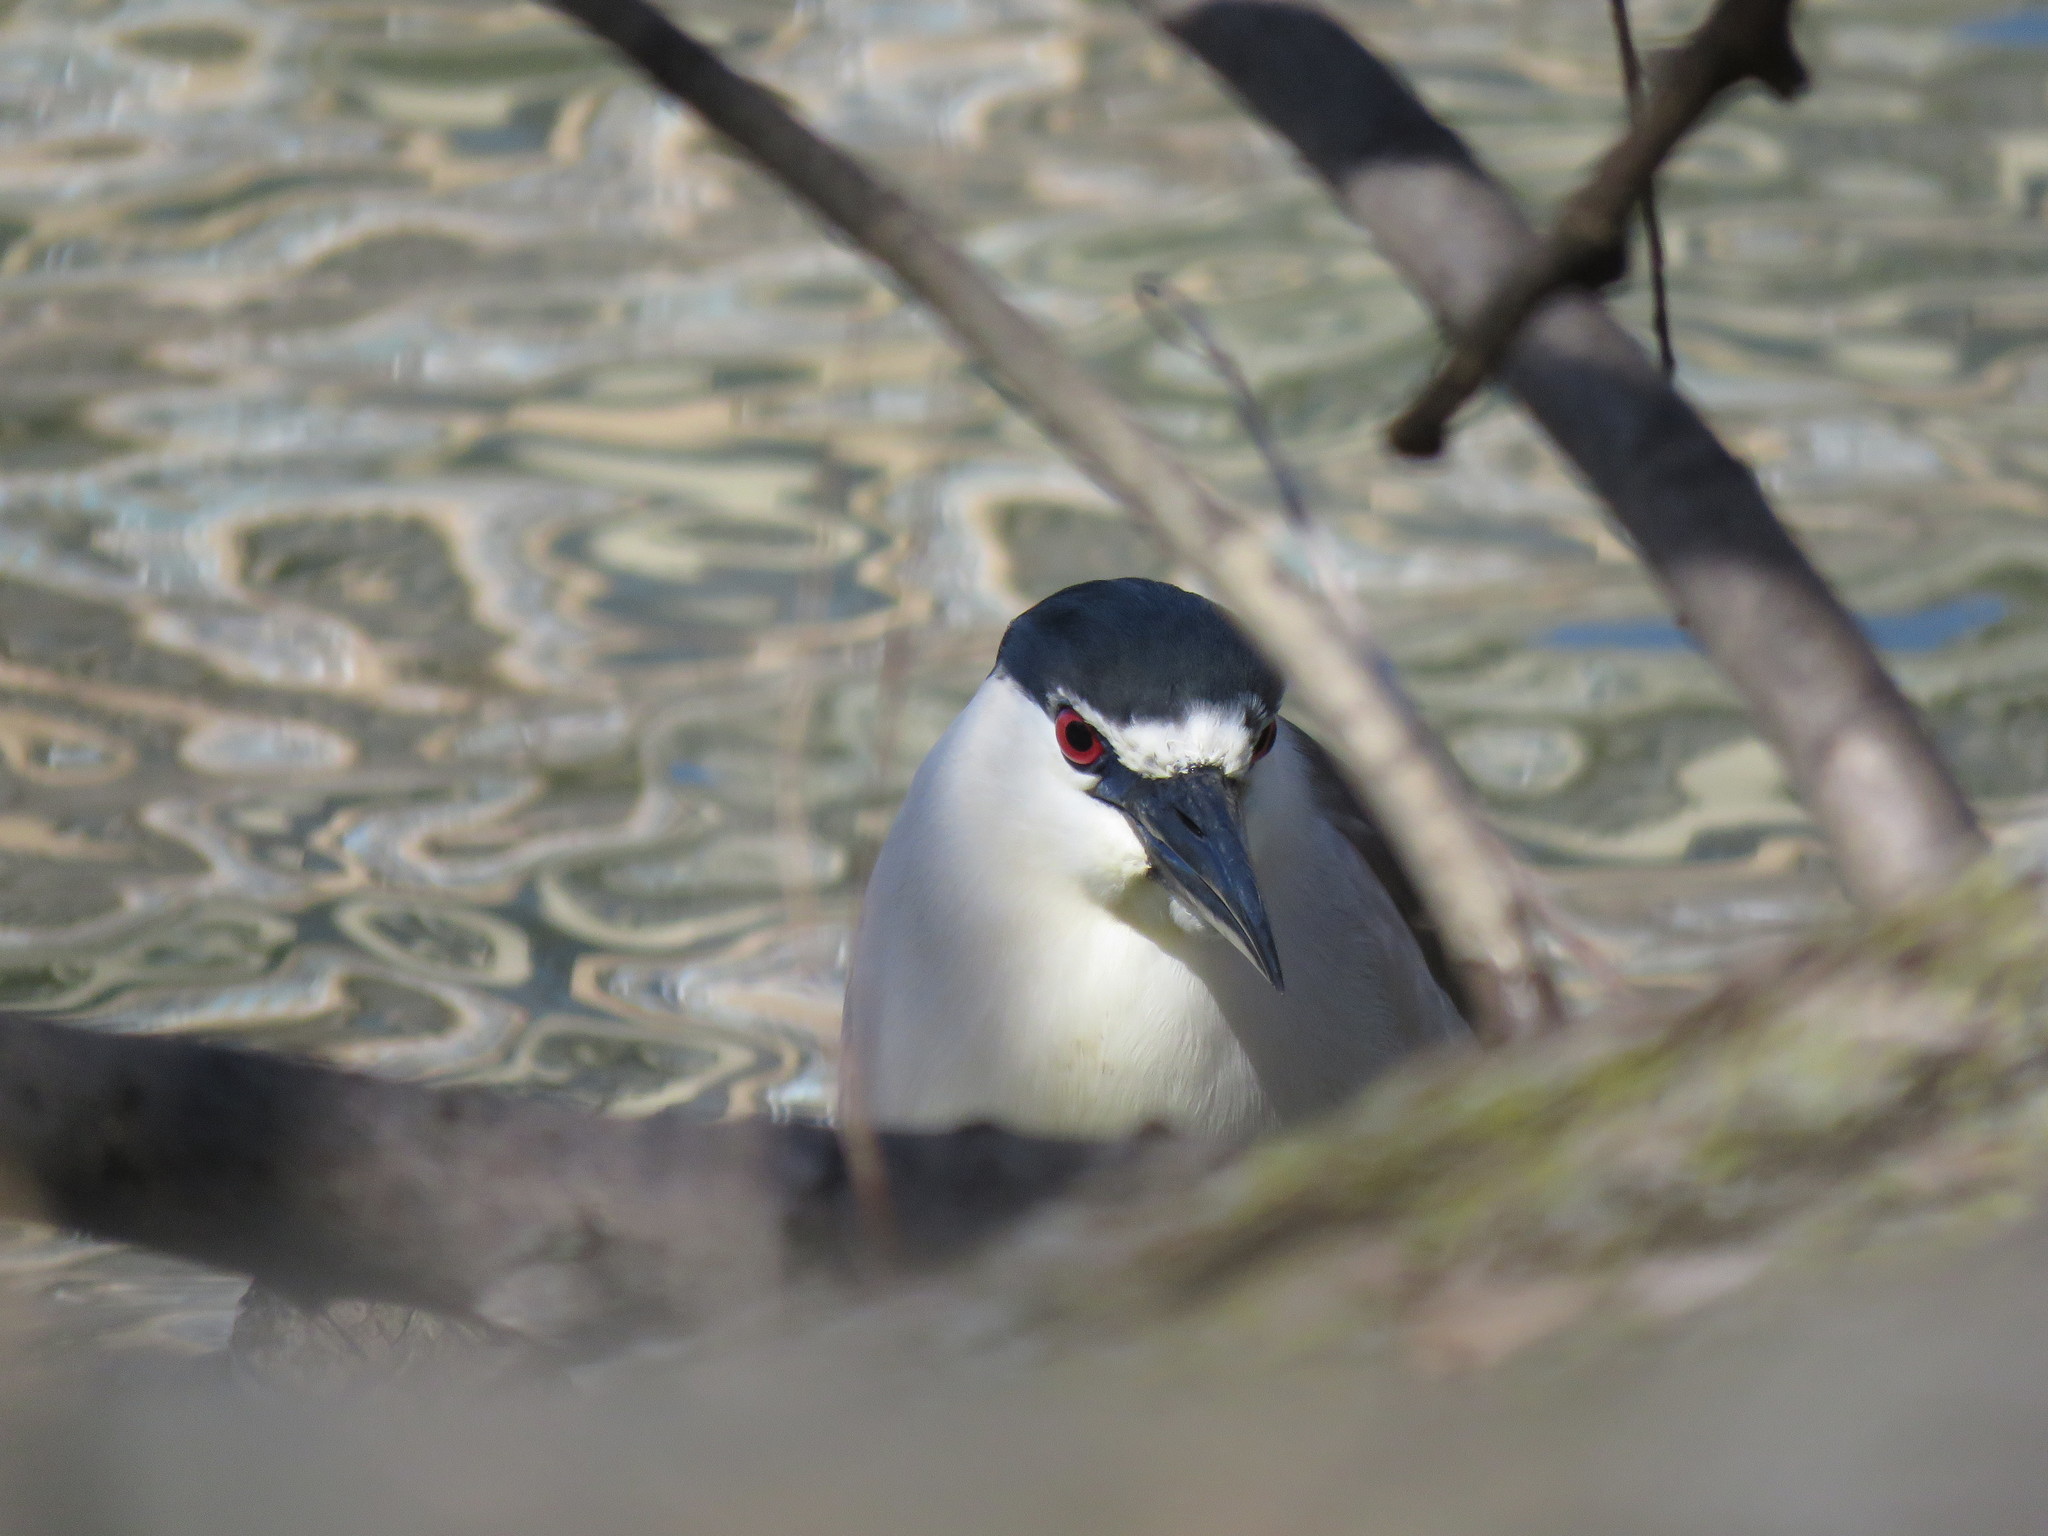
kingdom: Animalia
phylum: Chordata
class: Aves
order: Pelecaniformes
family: Ardeidae
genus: Nycticorax
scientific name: Nycticorax nycticorax
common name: Black-crowned night heron
